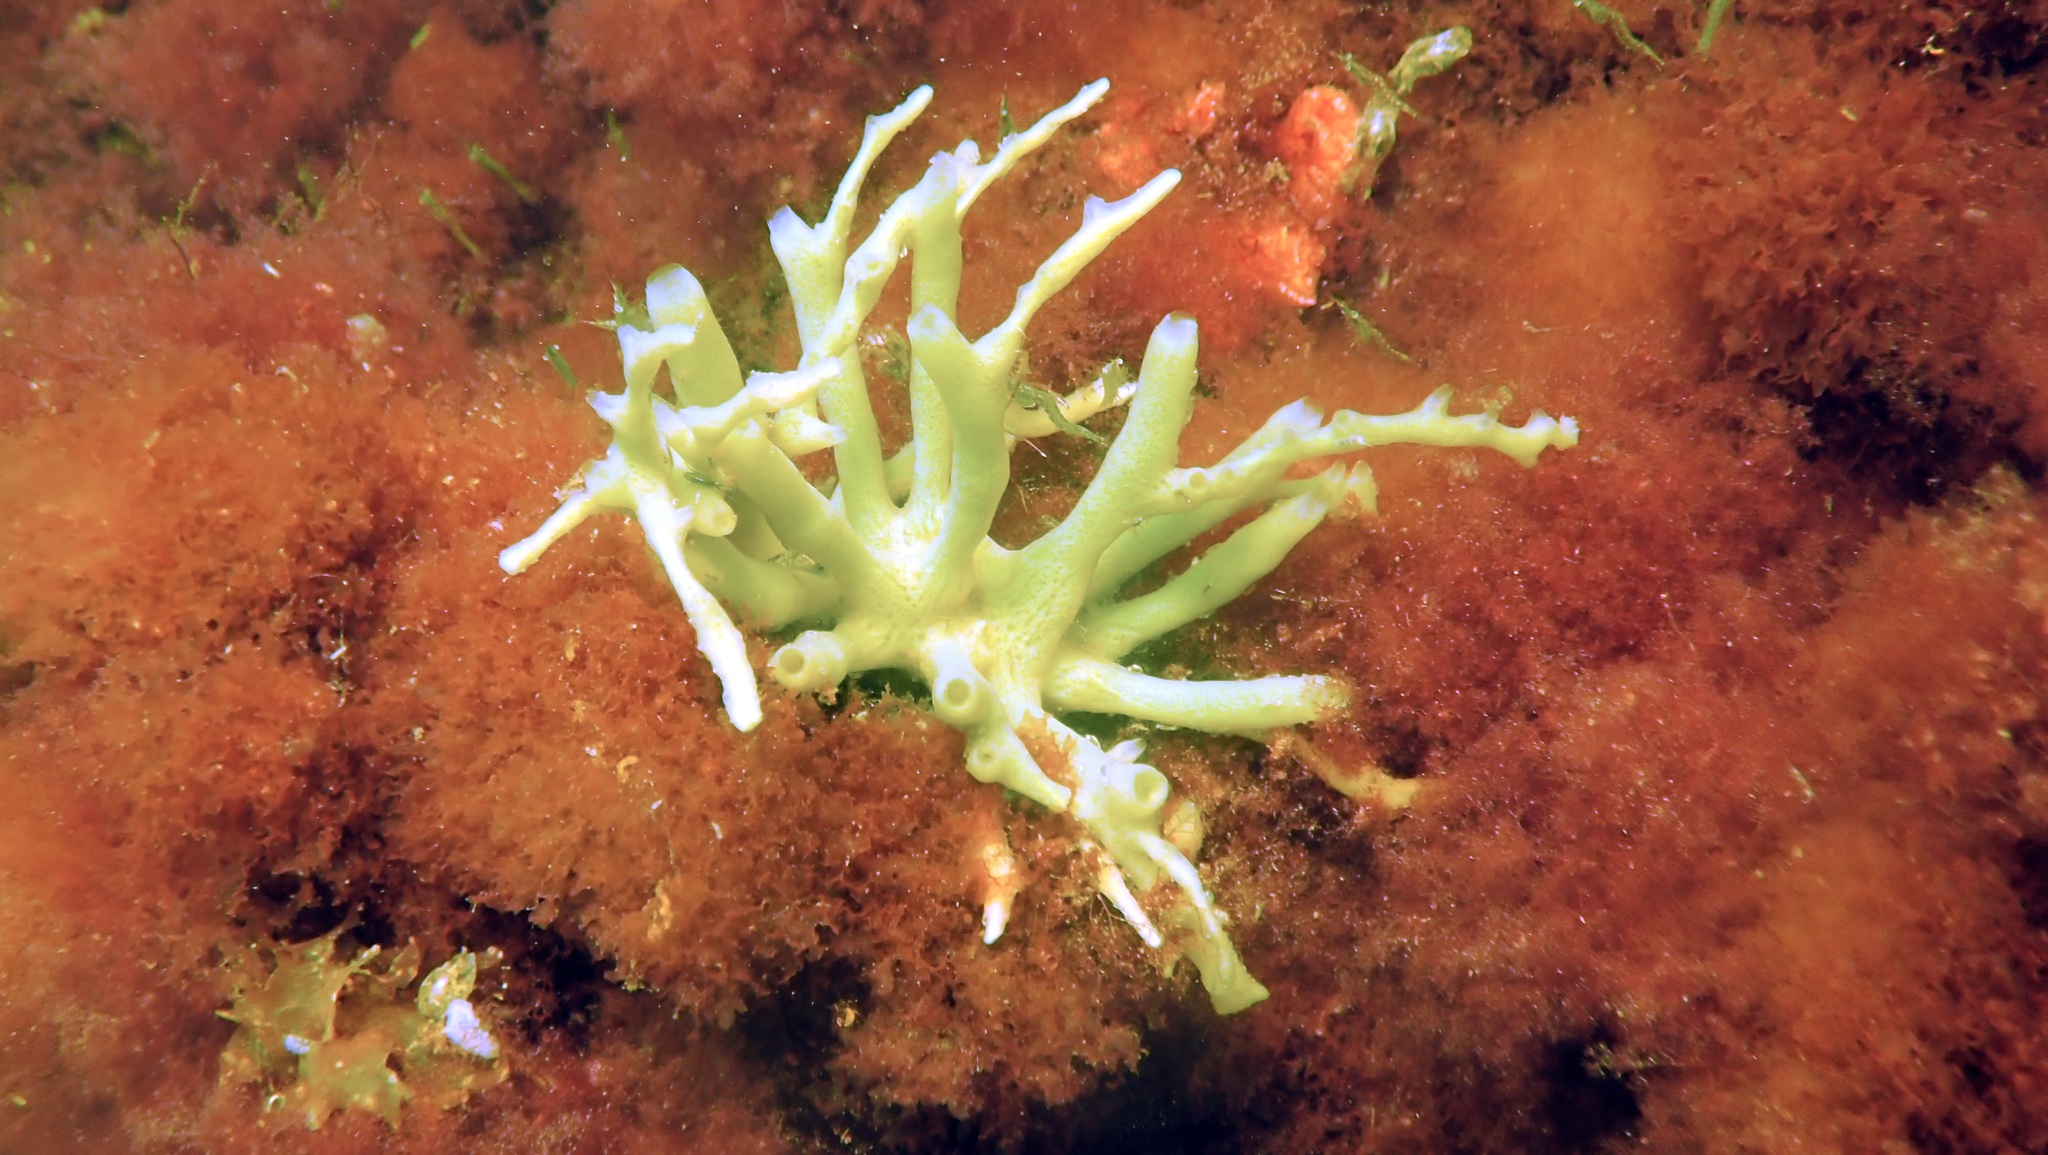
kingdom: Animalia
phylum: Porifera
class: Demospongiae
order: Haplosclerida
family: Chalinidae
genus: Haliclona
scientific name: Haliclona oculata
